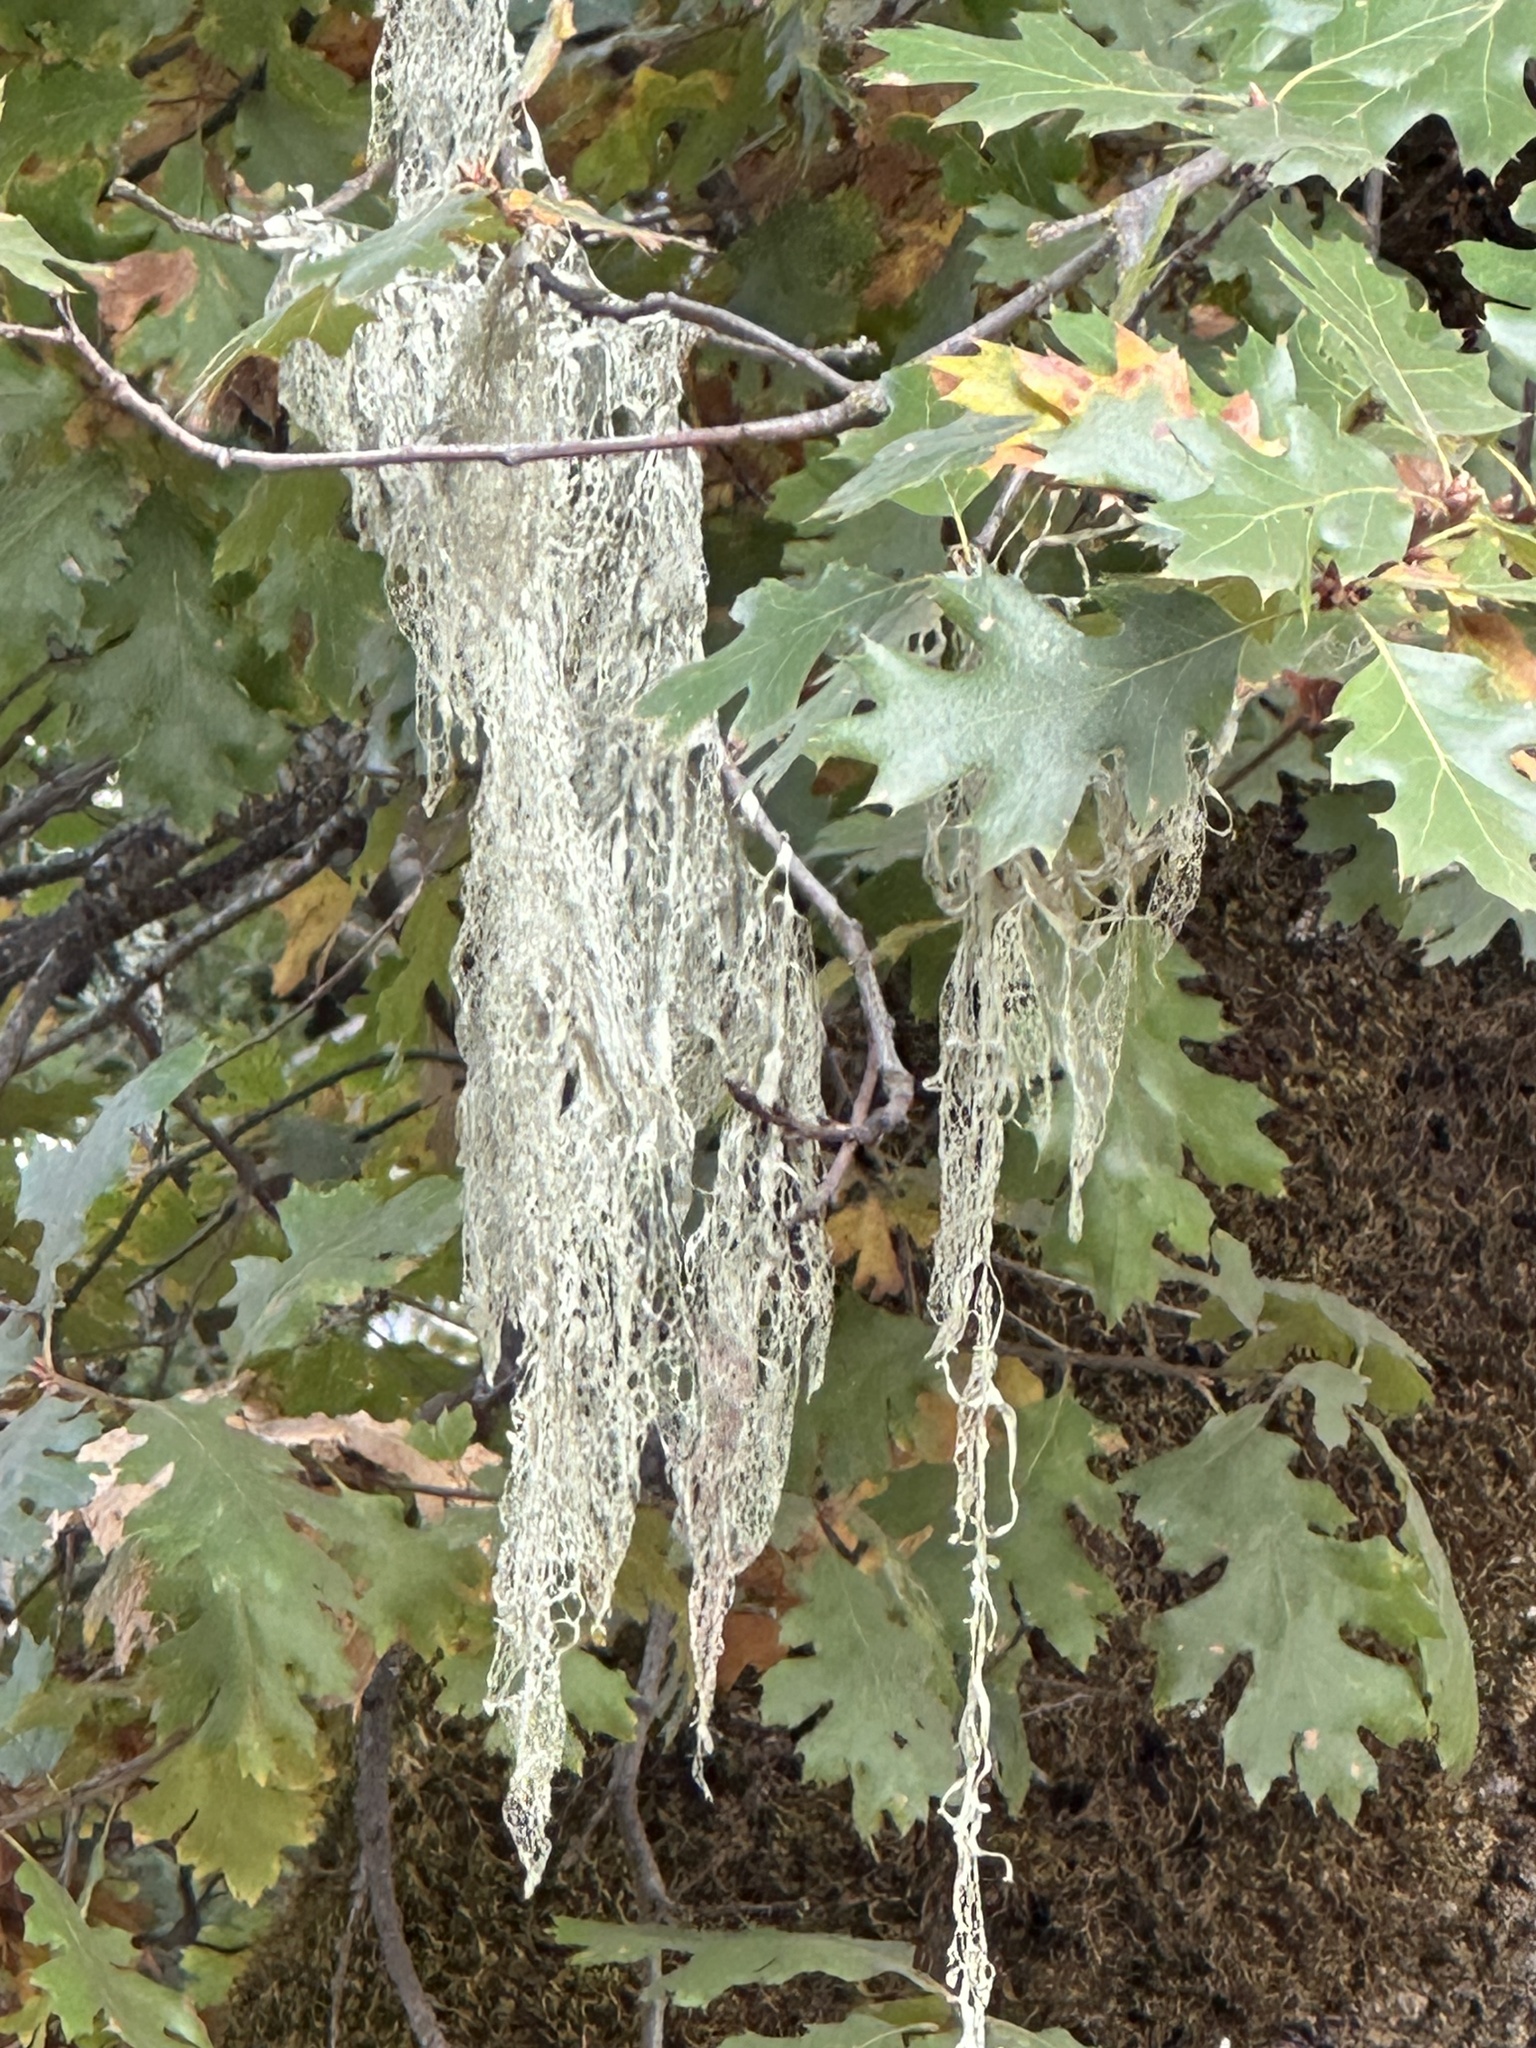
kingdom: Fungi
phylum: Ascomycota
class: Lecanoromycetes
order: Lecanorales
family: Ramalinaceae
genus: Ramalina
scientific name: Ramalina menziesii
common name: Lace lichen
